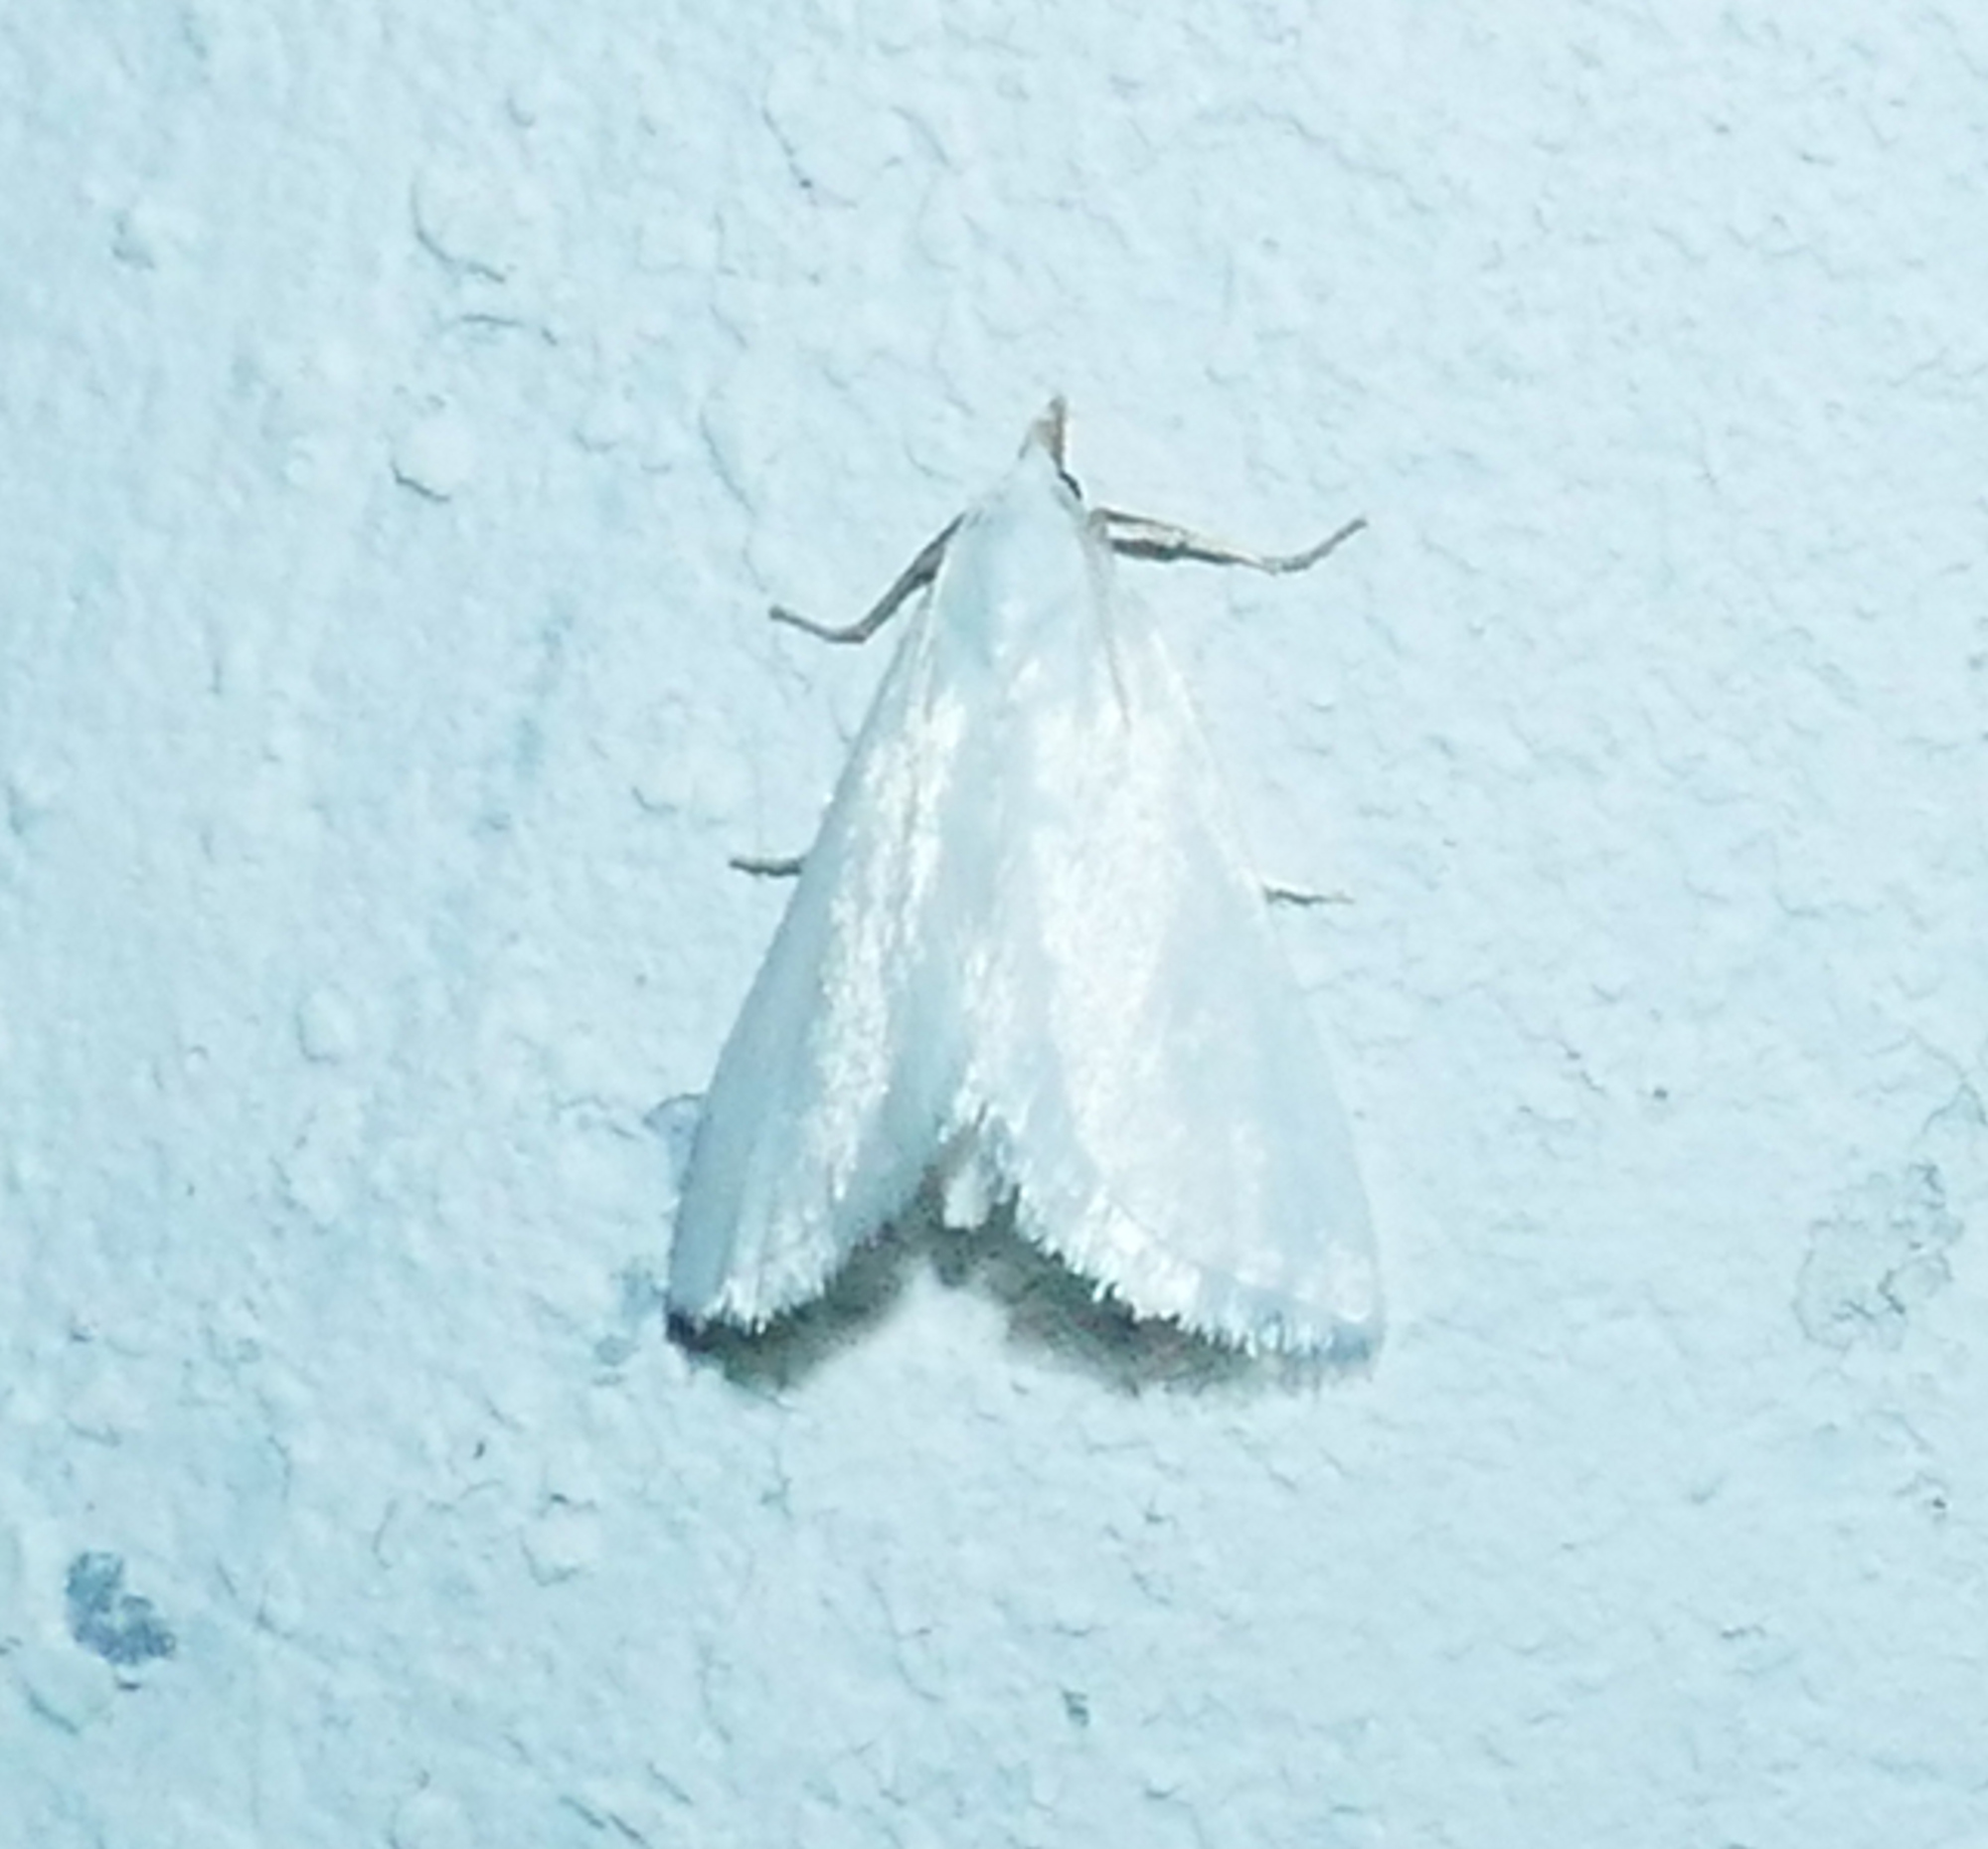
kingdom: Animalia
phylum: Arthropoda
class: Insecta
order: Lepidoptera
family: Crambidae
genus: Leptosteges
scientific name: Leptosteges vestaliella
